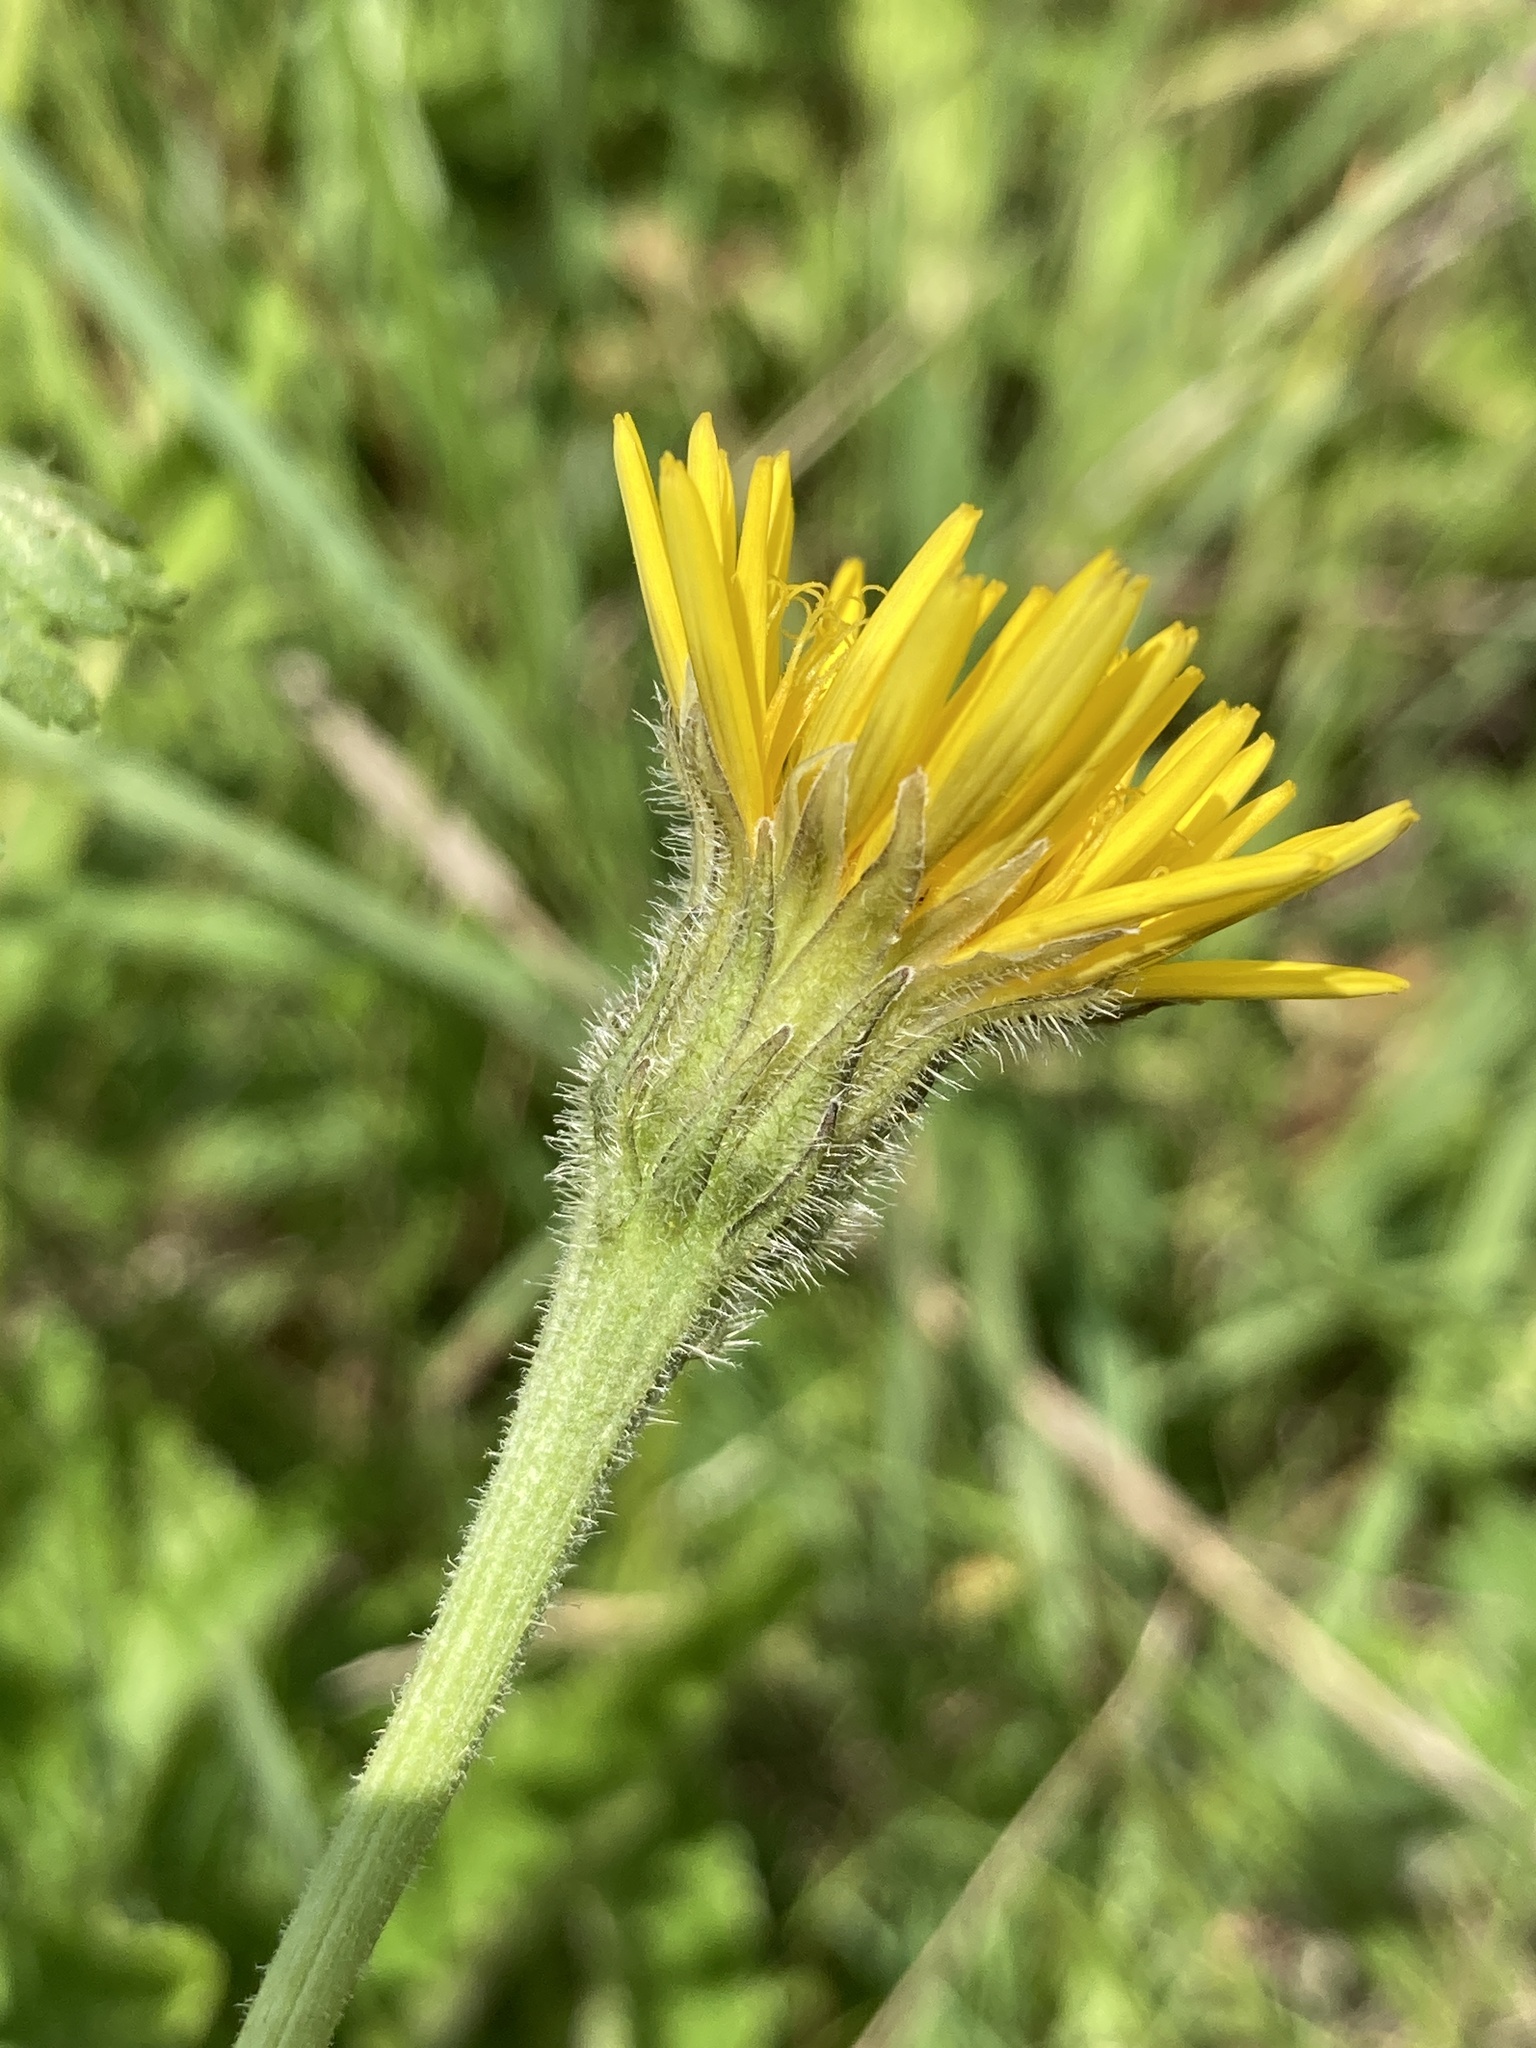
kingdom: Plantae
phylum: Tracheophyta
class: Magnoliopsida
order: Asterales
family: Asteraceae
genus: Leontodon
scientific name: Leontodon hispidus
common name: Rough hawkbit
